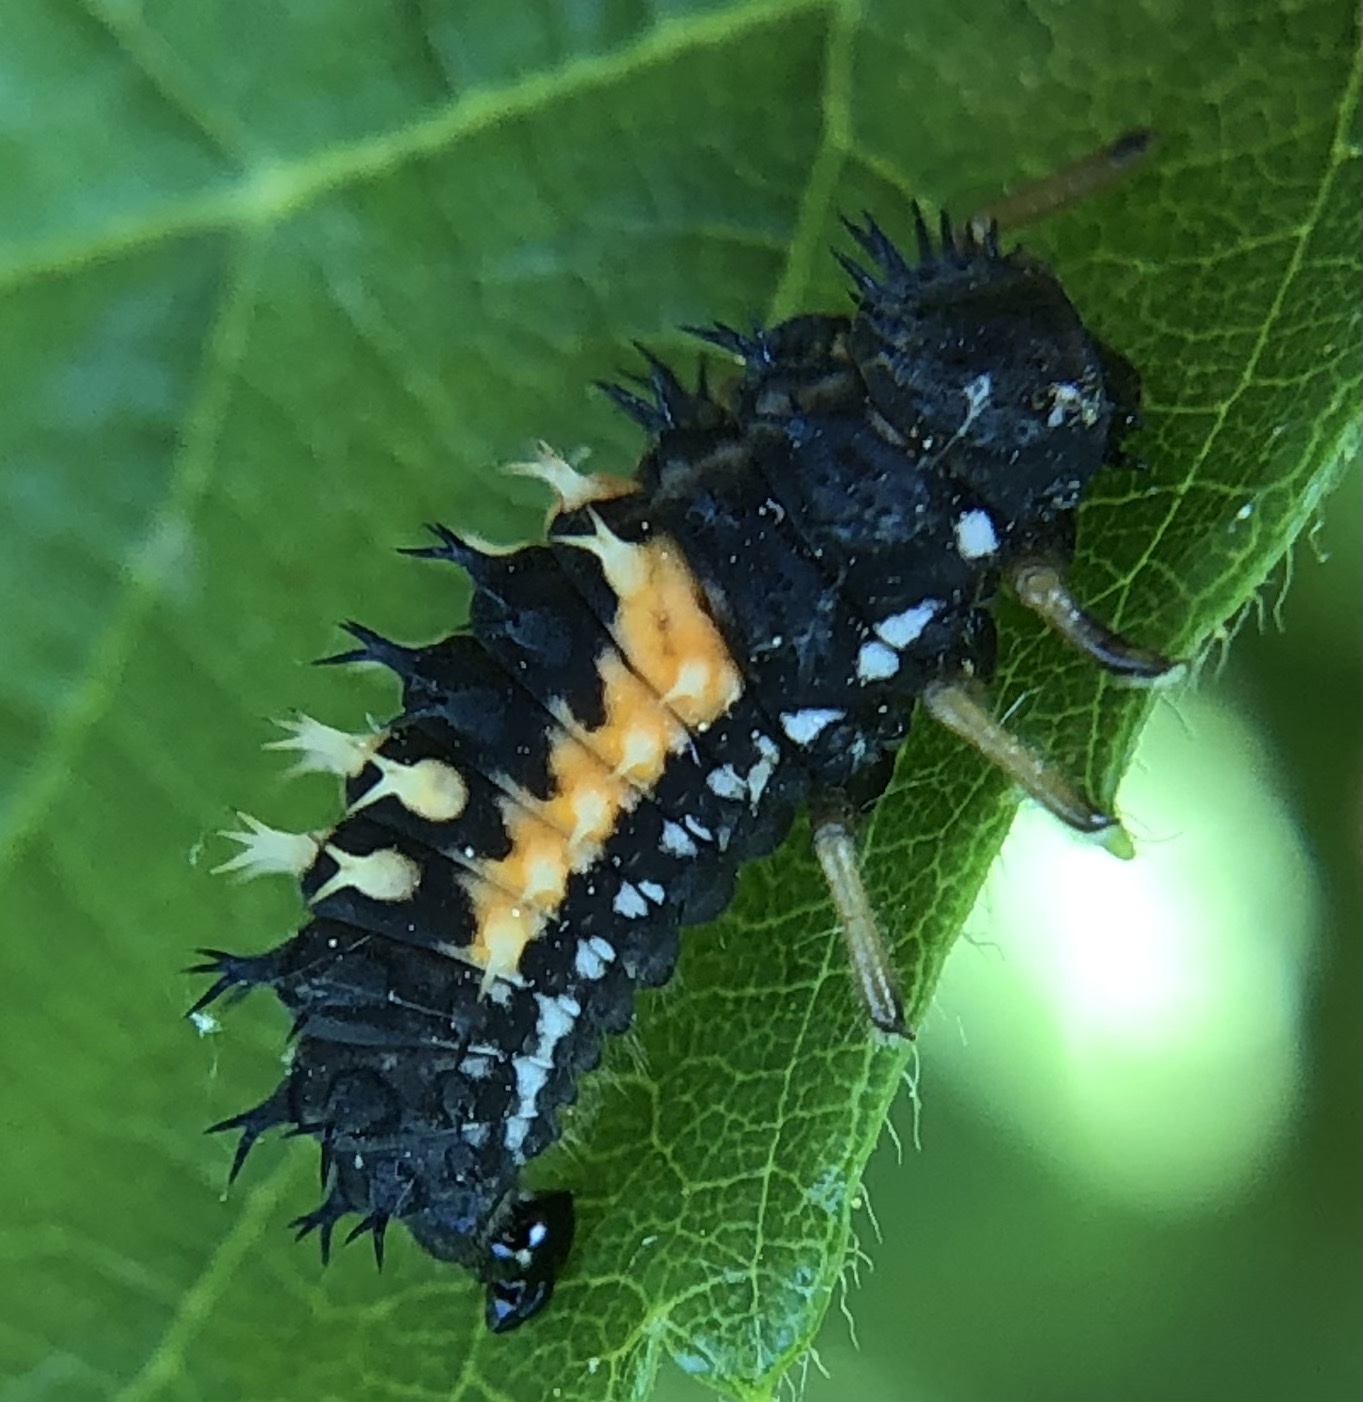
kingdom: Animalia
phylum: Arthropoda
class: Insecta
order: Coleoptera
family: Coccinellidae
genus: Harmonia
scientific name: Harmonia axyridis
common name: Harlequin ladybird
